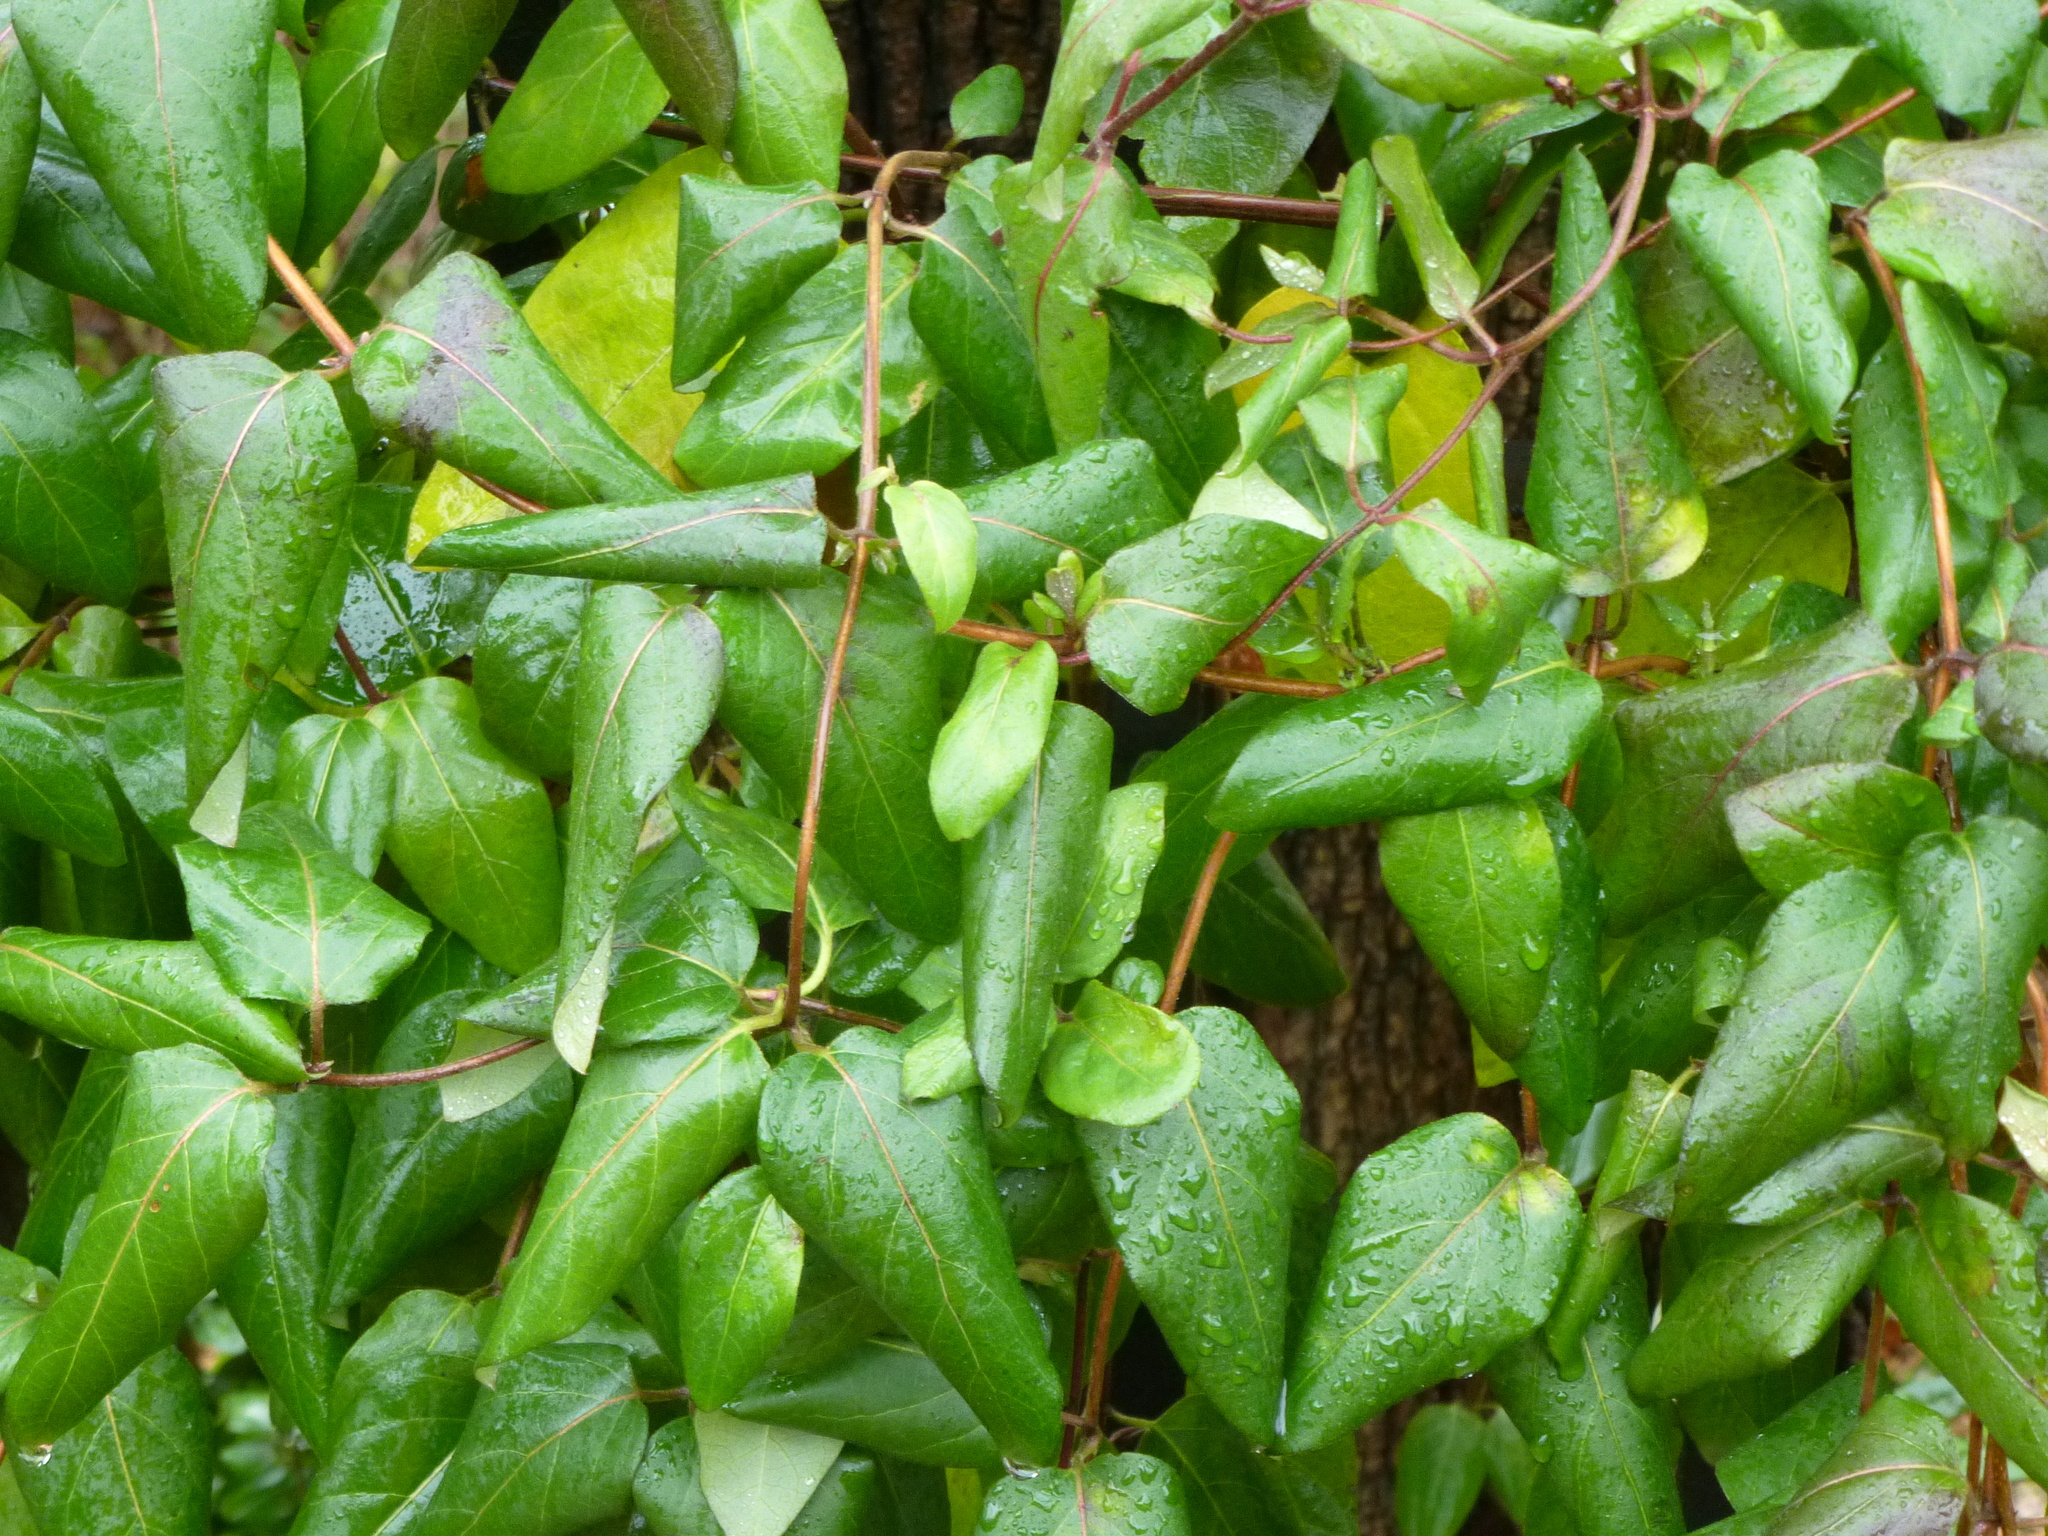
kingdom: Plantae
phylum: Tracheophyta
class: Magnoliopsida
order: Dipsacales
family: Caprifoliaceae
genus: Lonicera
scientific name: Lonicera japonica
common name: Japanese honeysuckle
